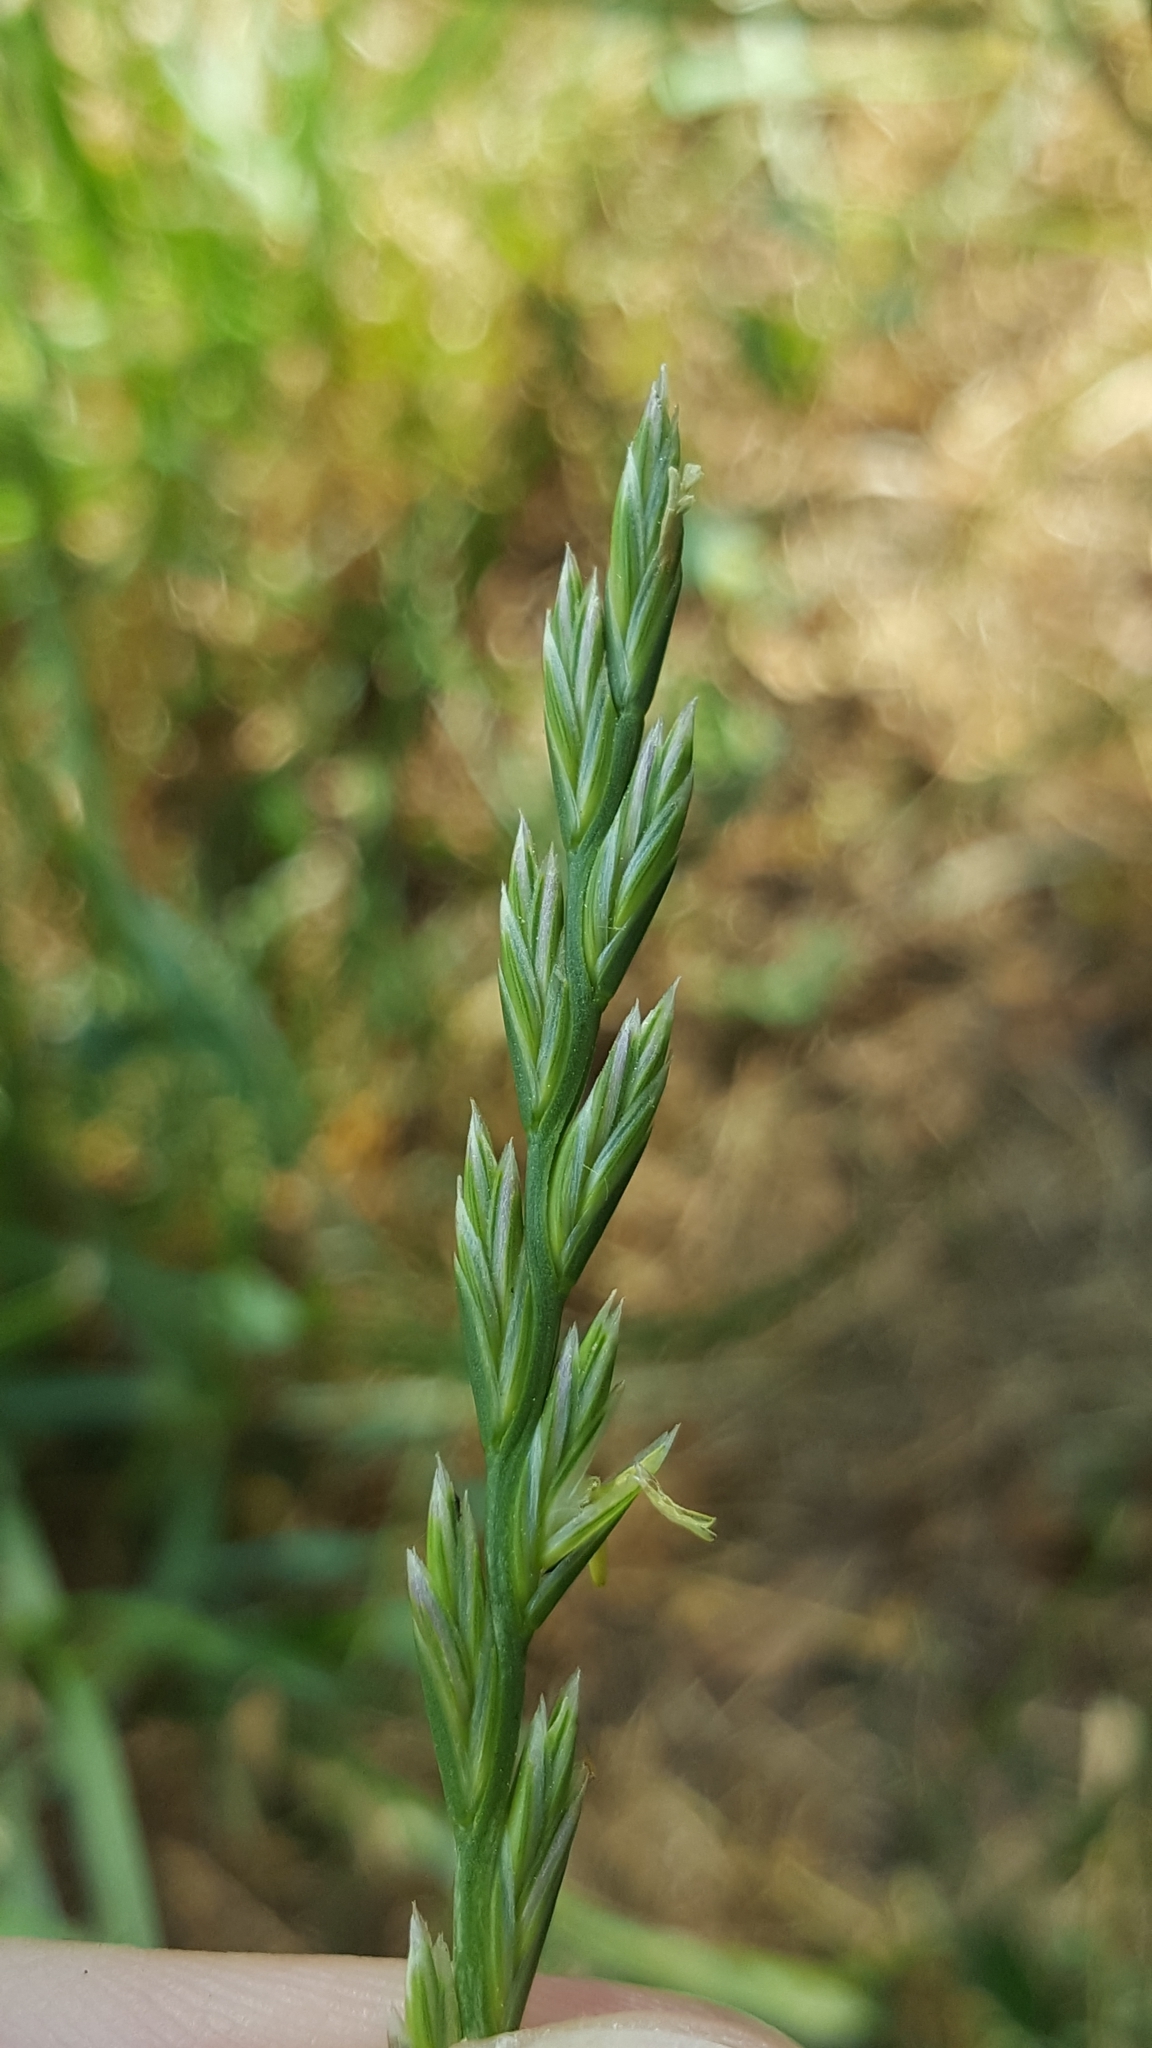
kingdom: Plantae
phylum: Tracheophyta
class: Liliopsida
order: Poales
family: Poaceae
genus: Lolium
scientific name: Lolium perenne
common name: Perennial ryegrass
